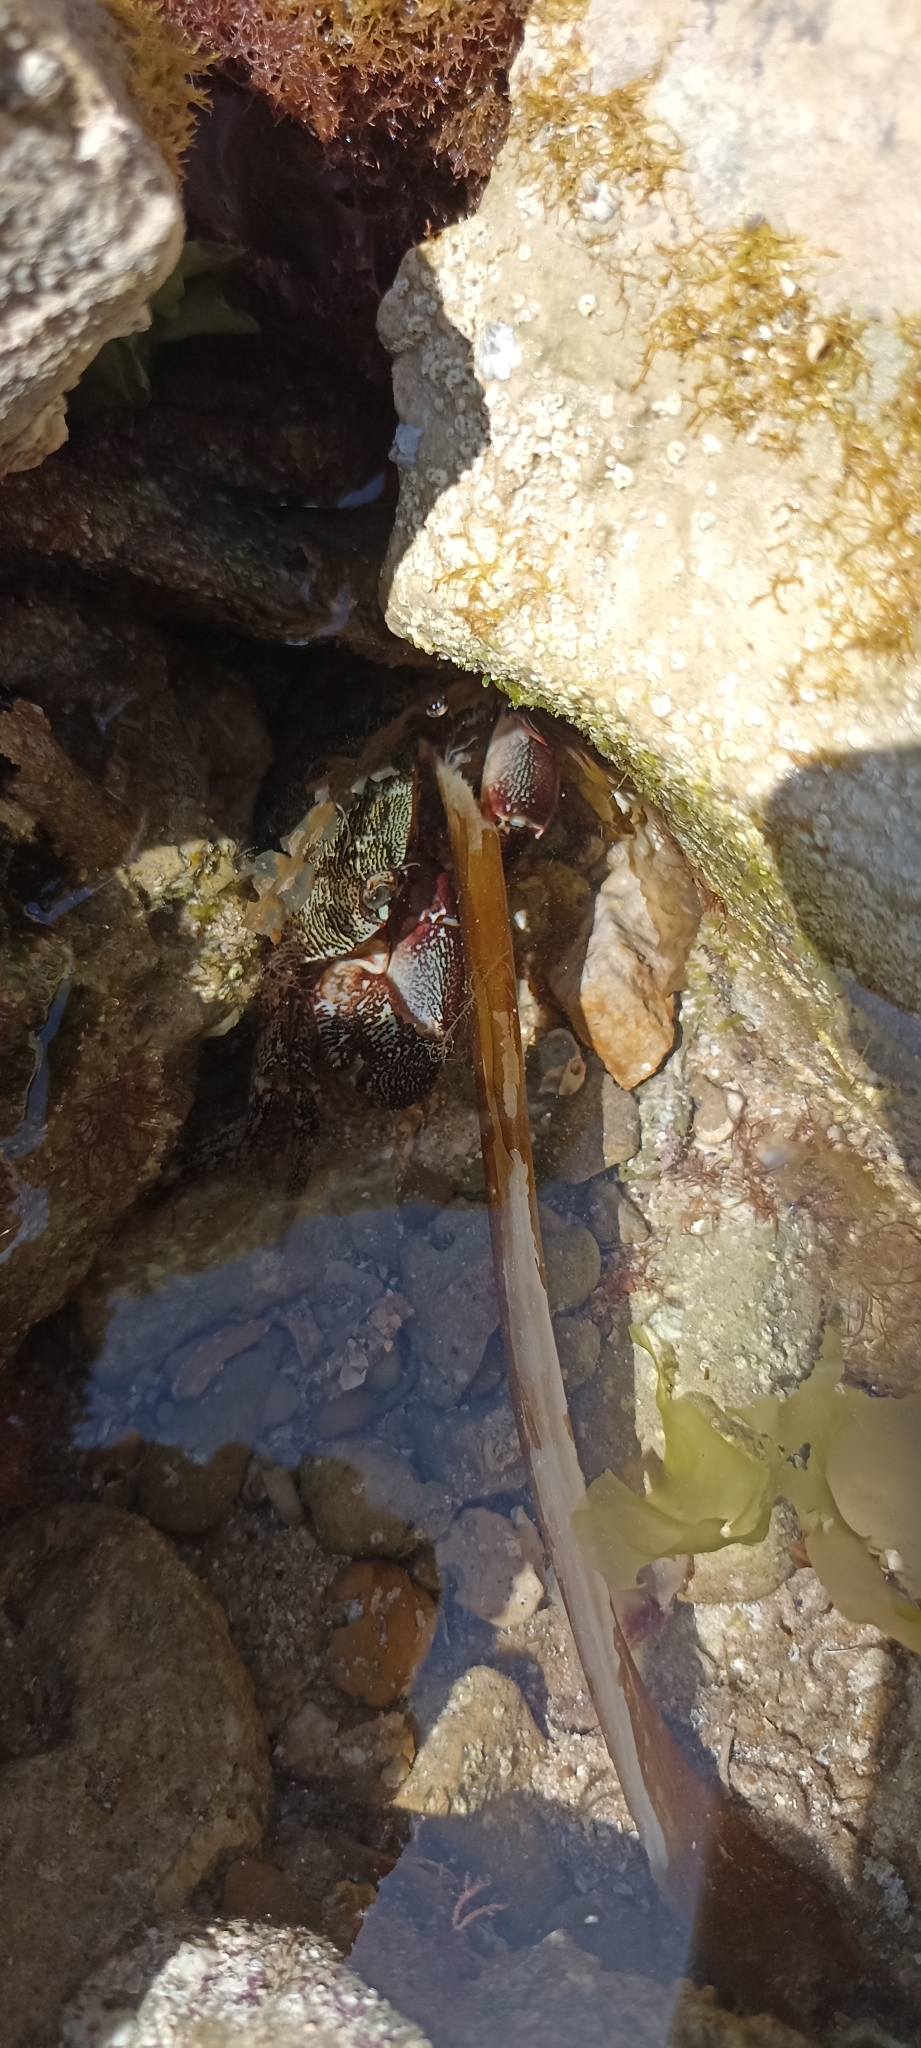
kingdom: Animalia
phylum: Arthropoda
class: Malacostraca
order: Decapoda
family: Grapsidae
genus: Pachygrapsus
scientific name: Pachygrapsus marmoratus
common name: Marbled rock crab
